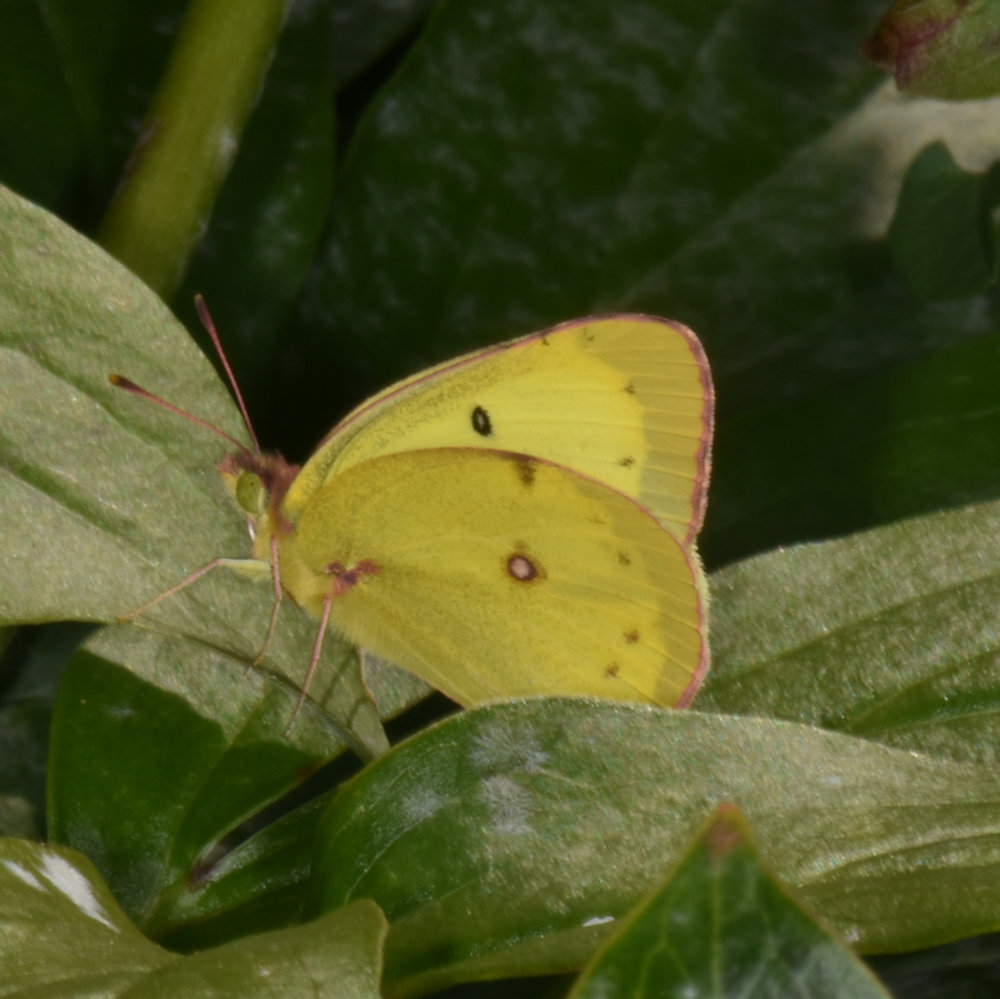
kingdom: Animalia
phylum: Arthropoda
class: Insecta
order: Lepidoptera
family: Pieridae
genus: Colias
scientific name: Colias philodice
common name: Clouded sulphur
